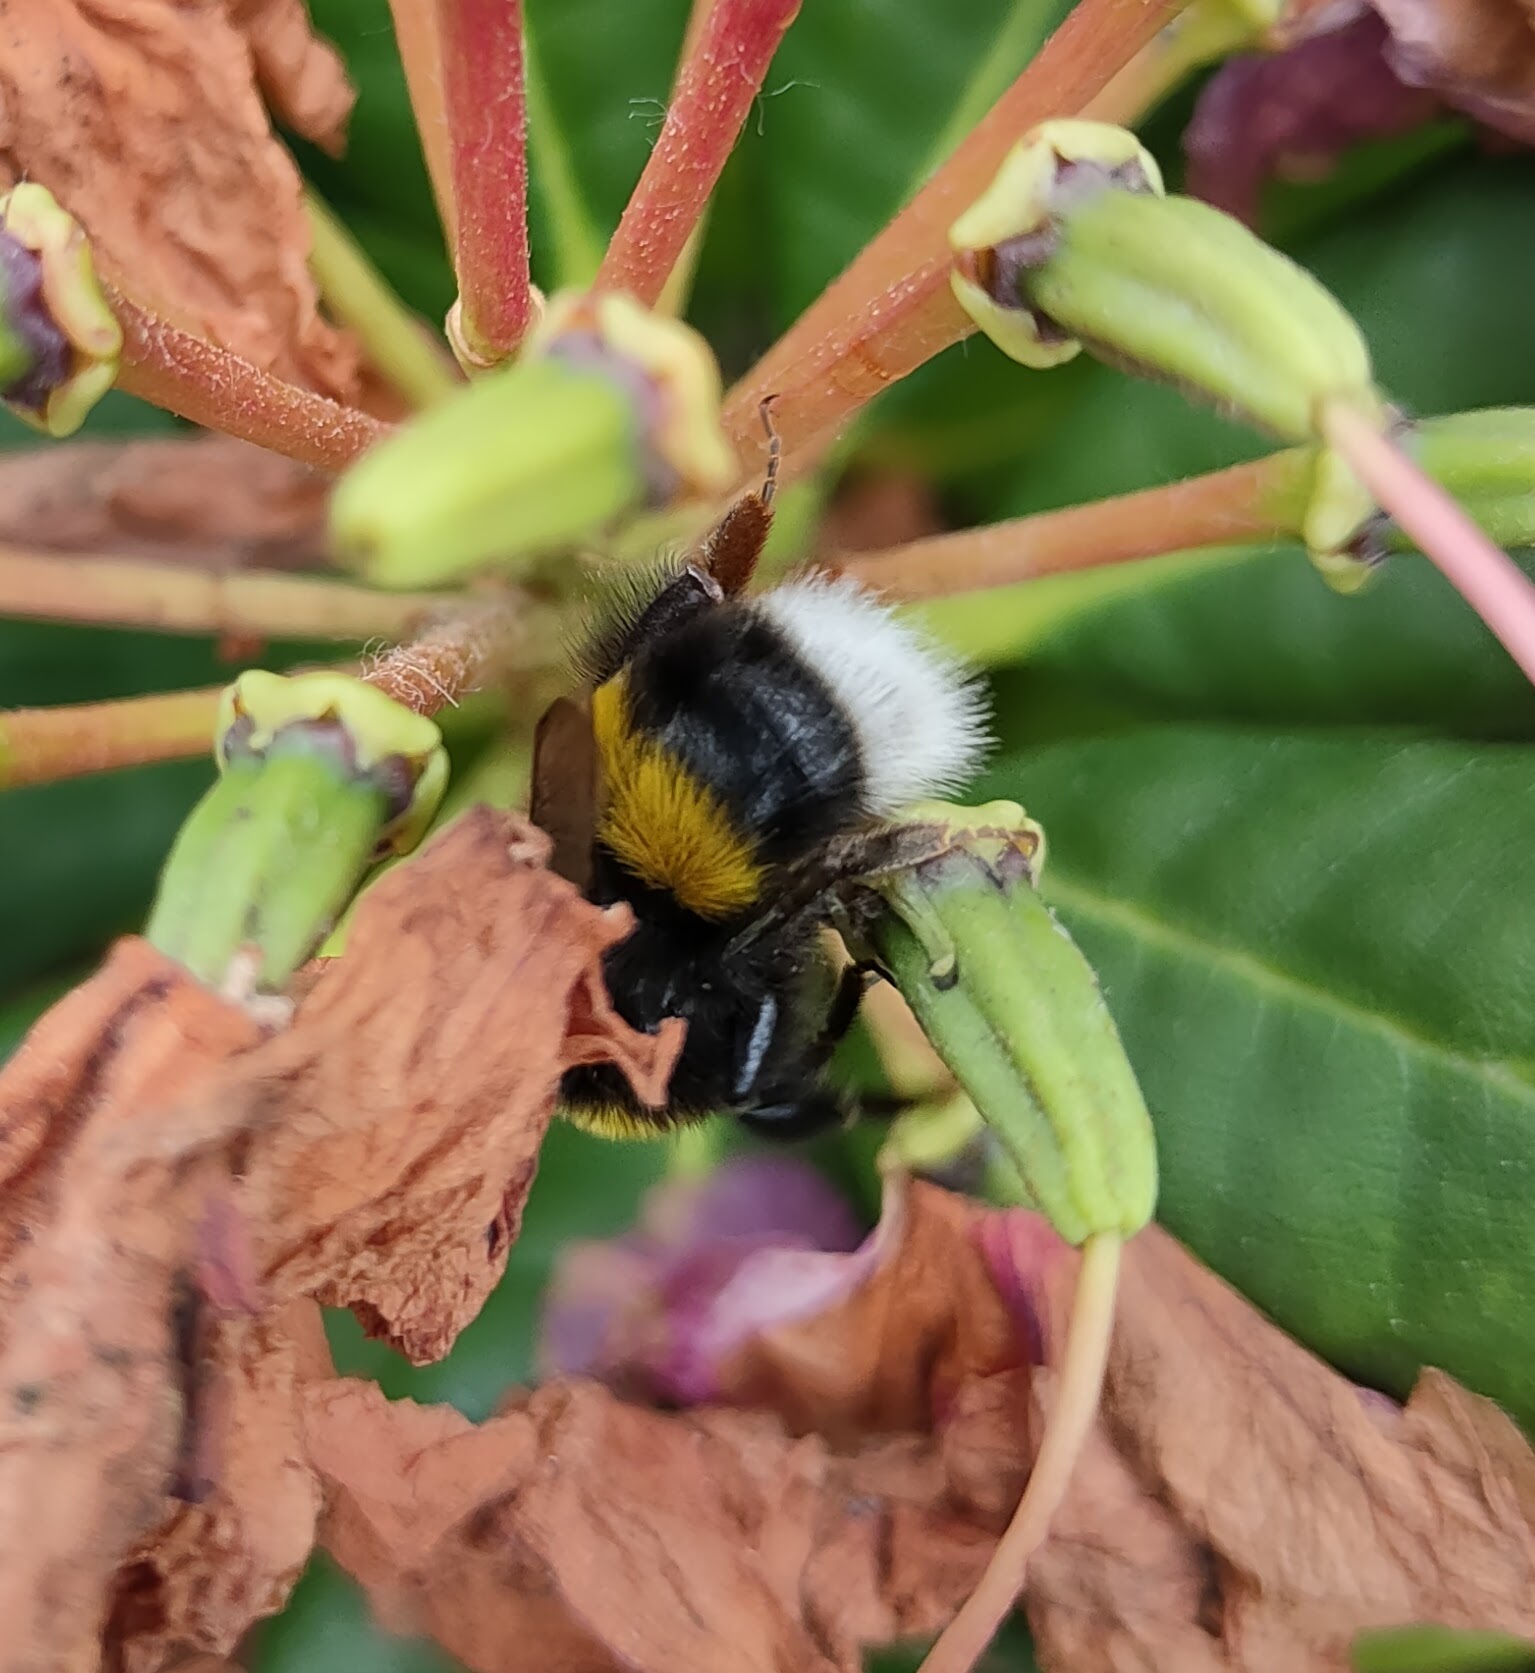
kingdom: Animalia
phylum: Arthropoda
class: Insecta
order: Hymenoptera
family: Apidae
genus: Bombus
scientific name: Bombus terrestris
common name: Buff-tailed bumblebee
